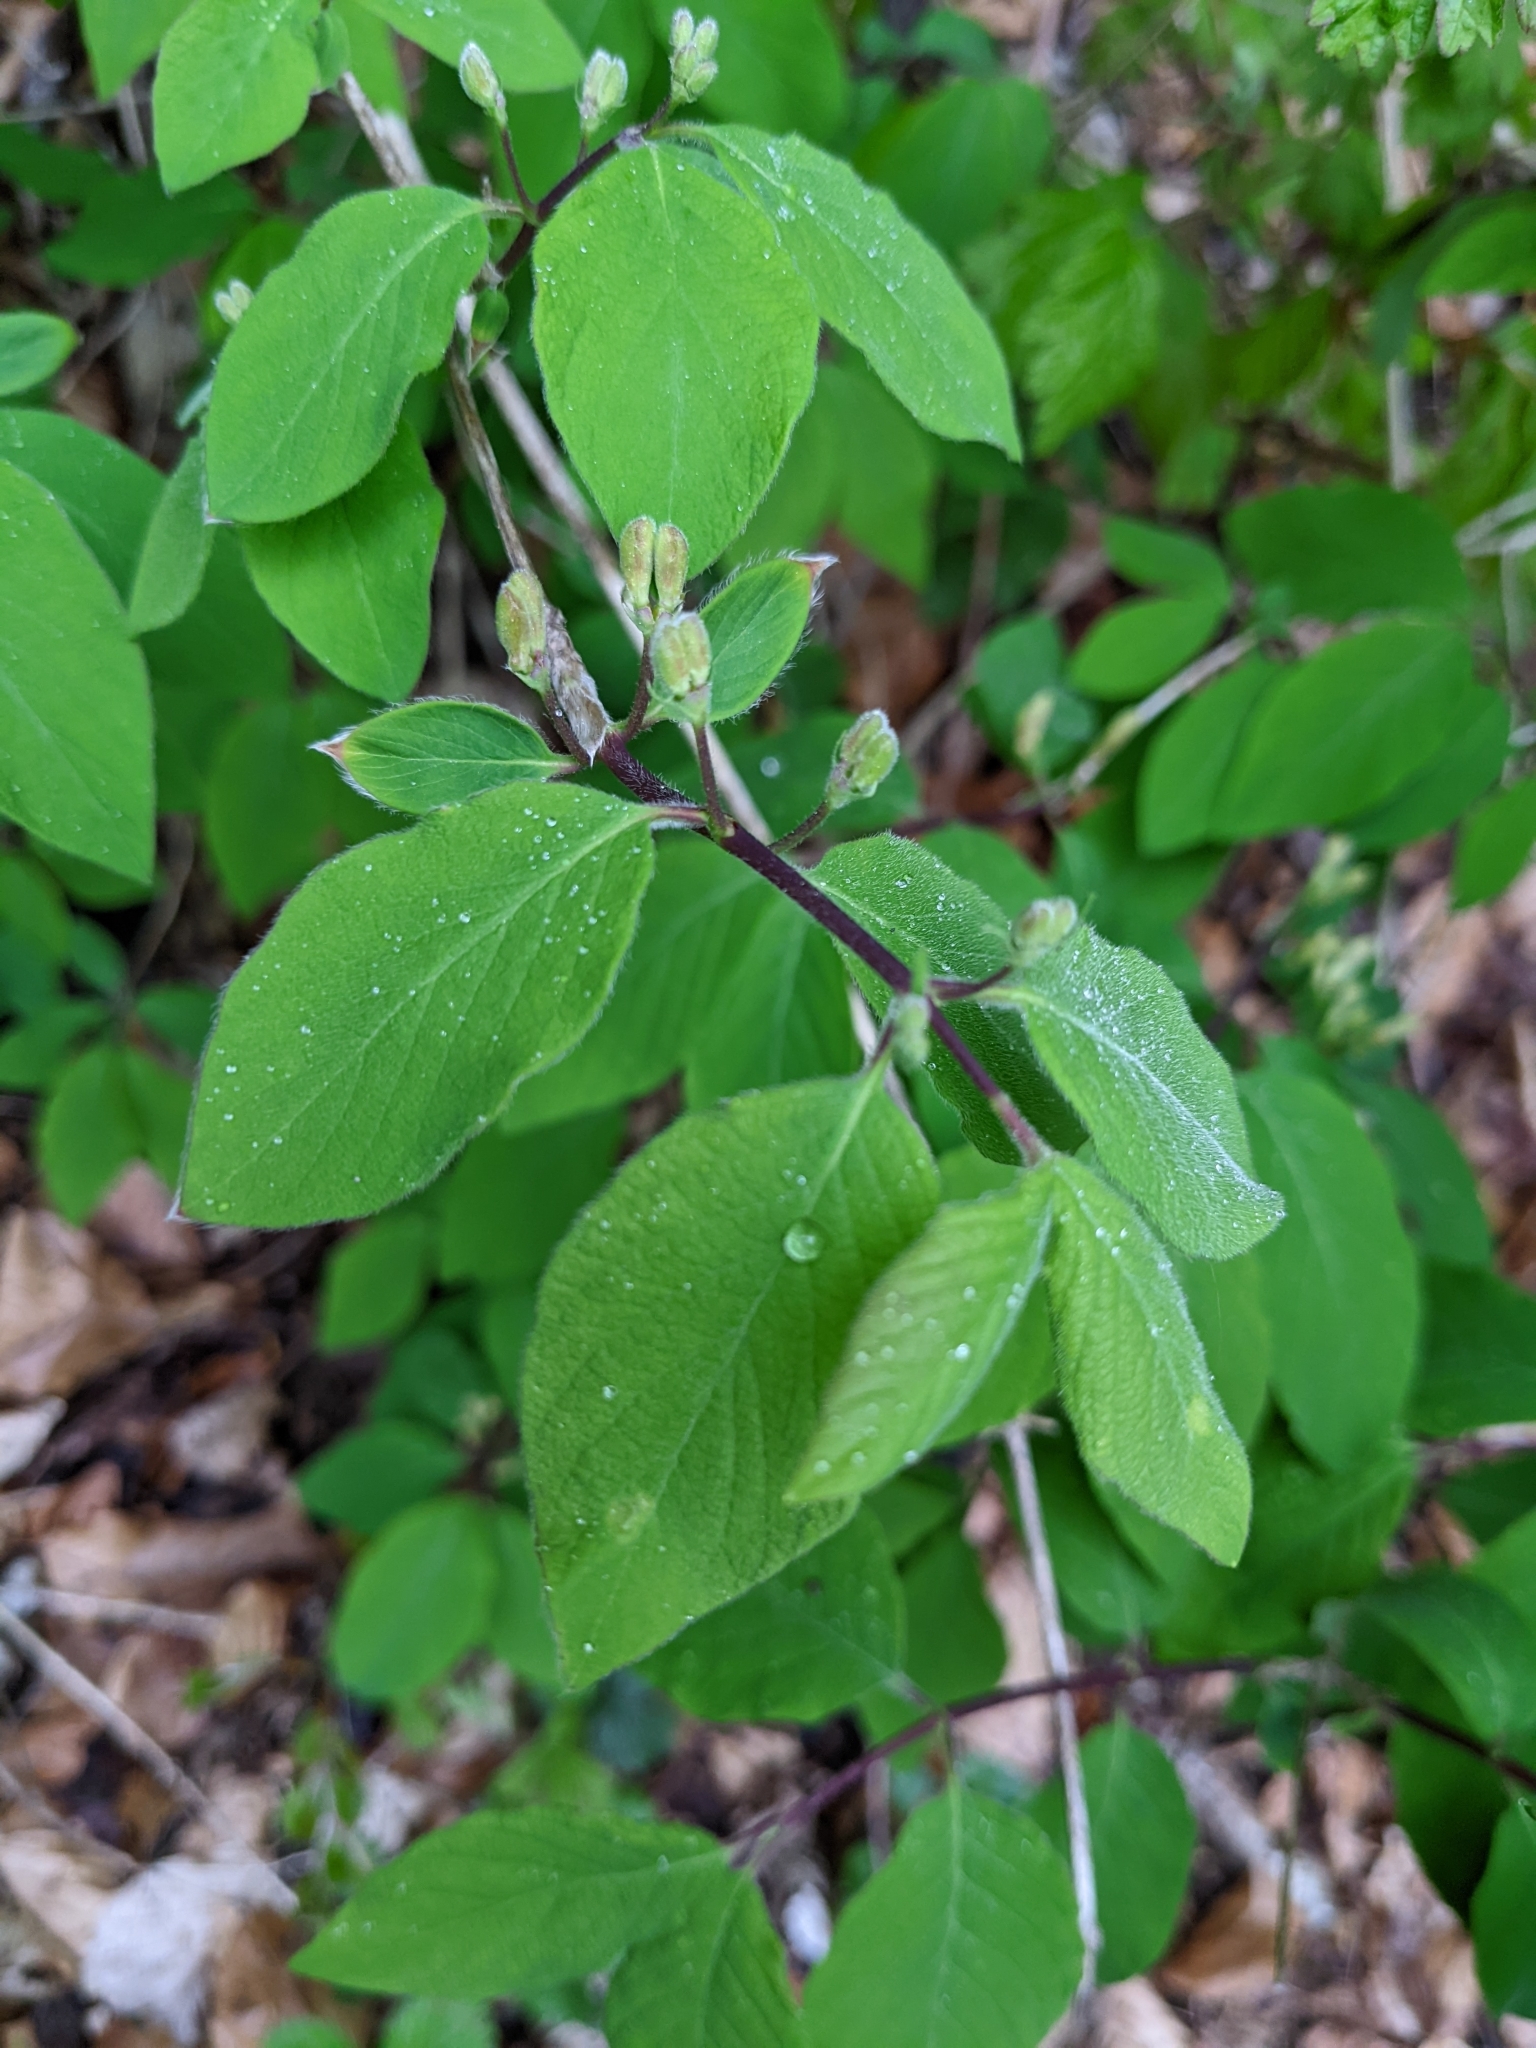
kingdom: Plantae
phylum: Tracheophyta
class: Magnoliopsida
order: Dipsacales
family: Caprifoliaceae
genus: Lonicera
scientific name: Lonicera xylosteum
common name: Fly honeysuckle
